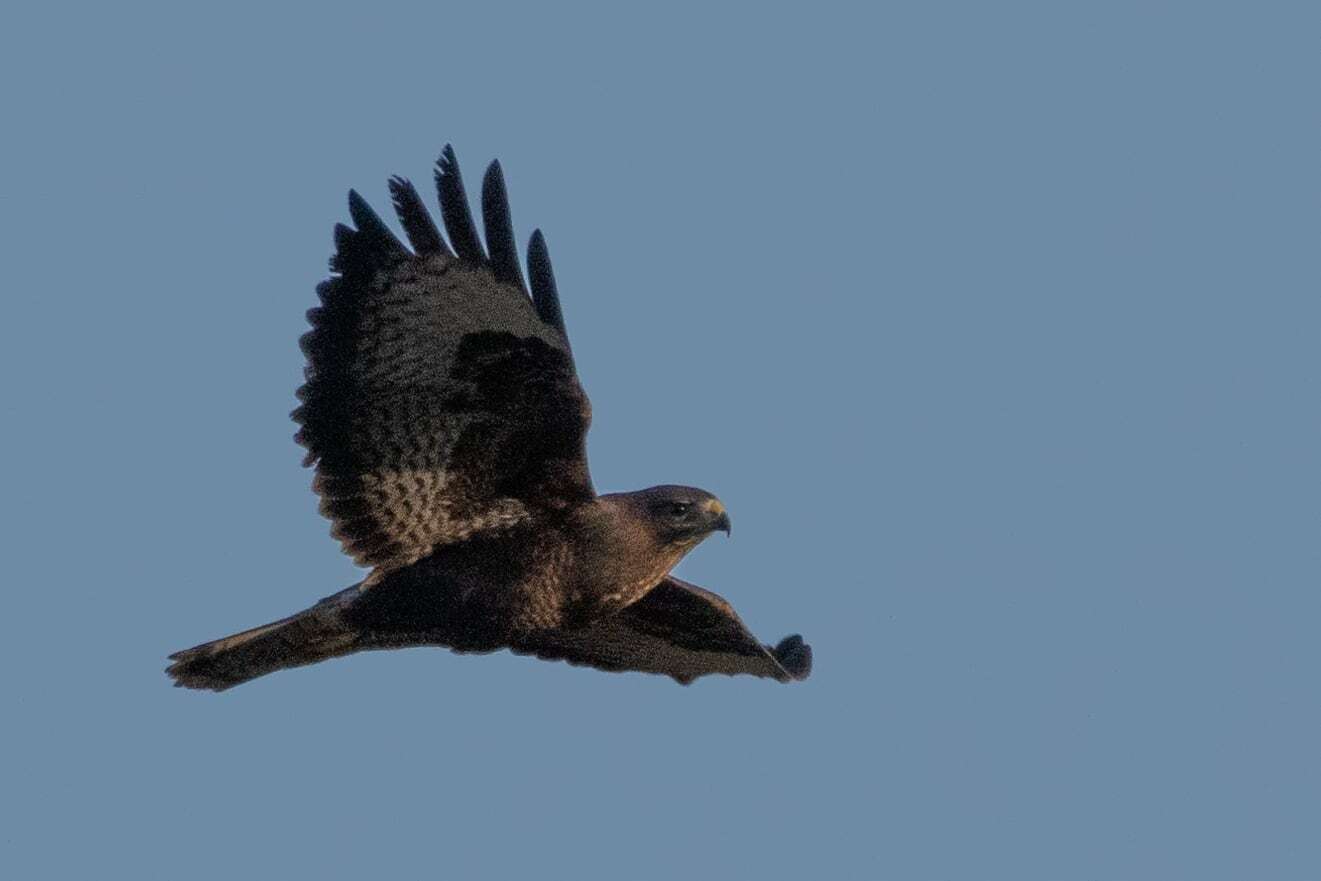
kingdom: Animalia
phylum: Chordata
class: Aves
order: Accipitriformes
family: Accipitridae
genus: Buteo
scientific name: Buteo buteo
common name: Common buzzard
